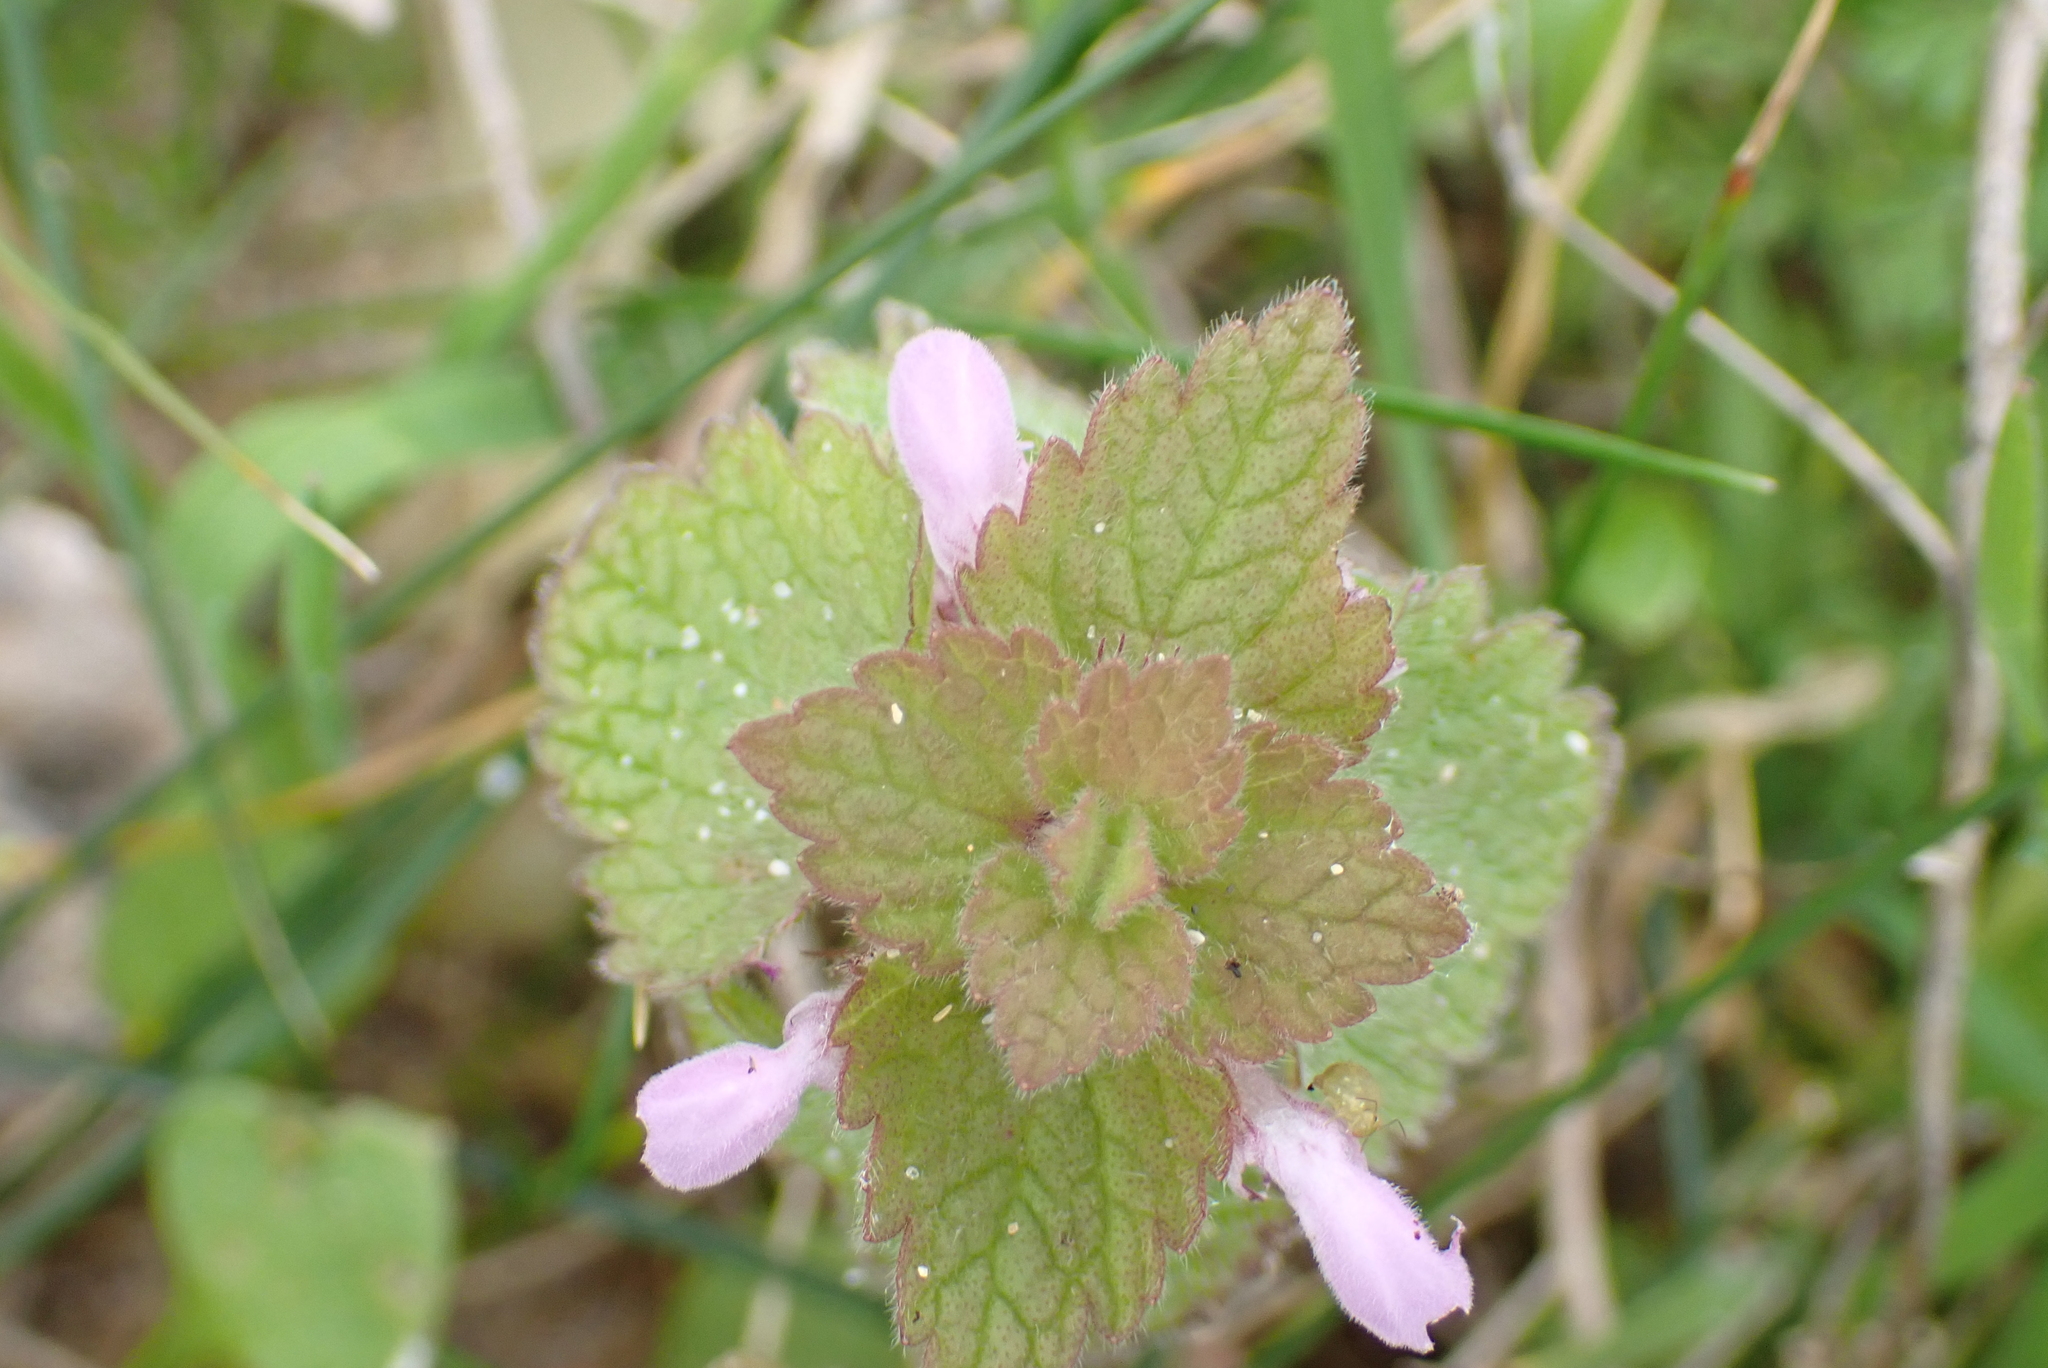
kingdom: Plantae
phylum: Tracheophyta
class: Magnoliopsida
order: Lamiales
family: Lamiaceae
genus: Lamium
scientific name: Lamium purpureum
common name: Red dead-nettle
